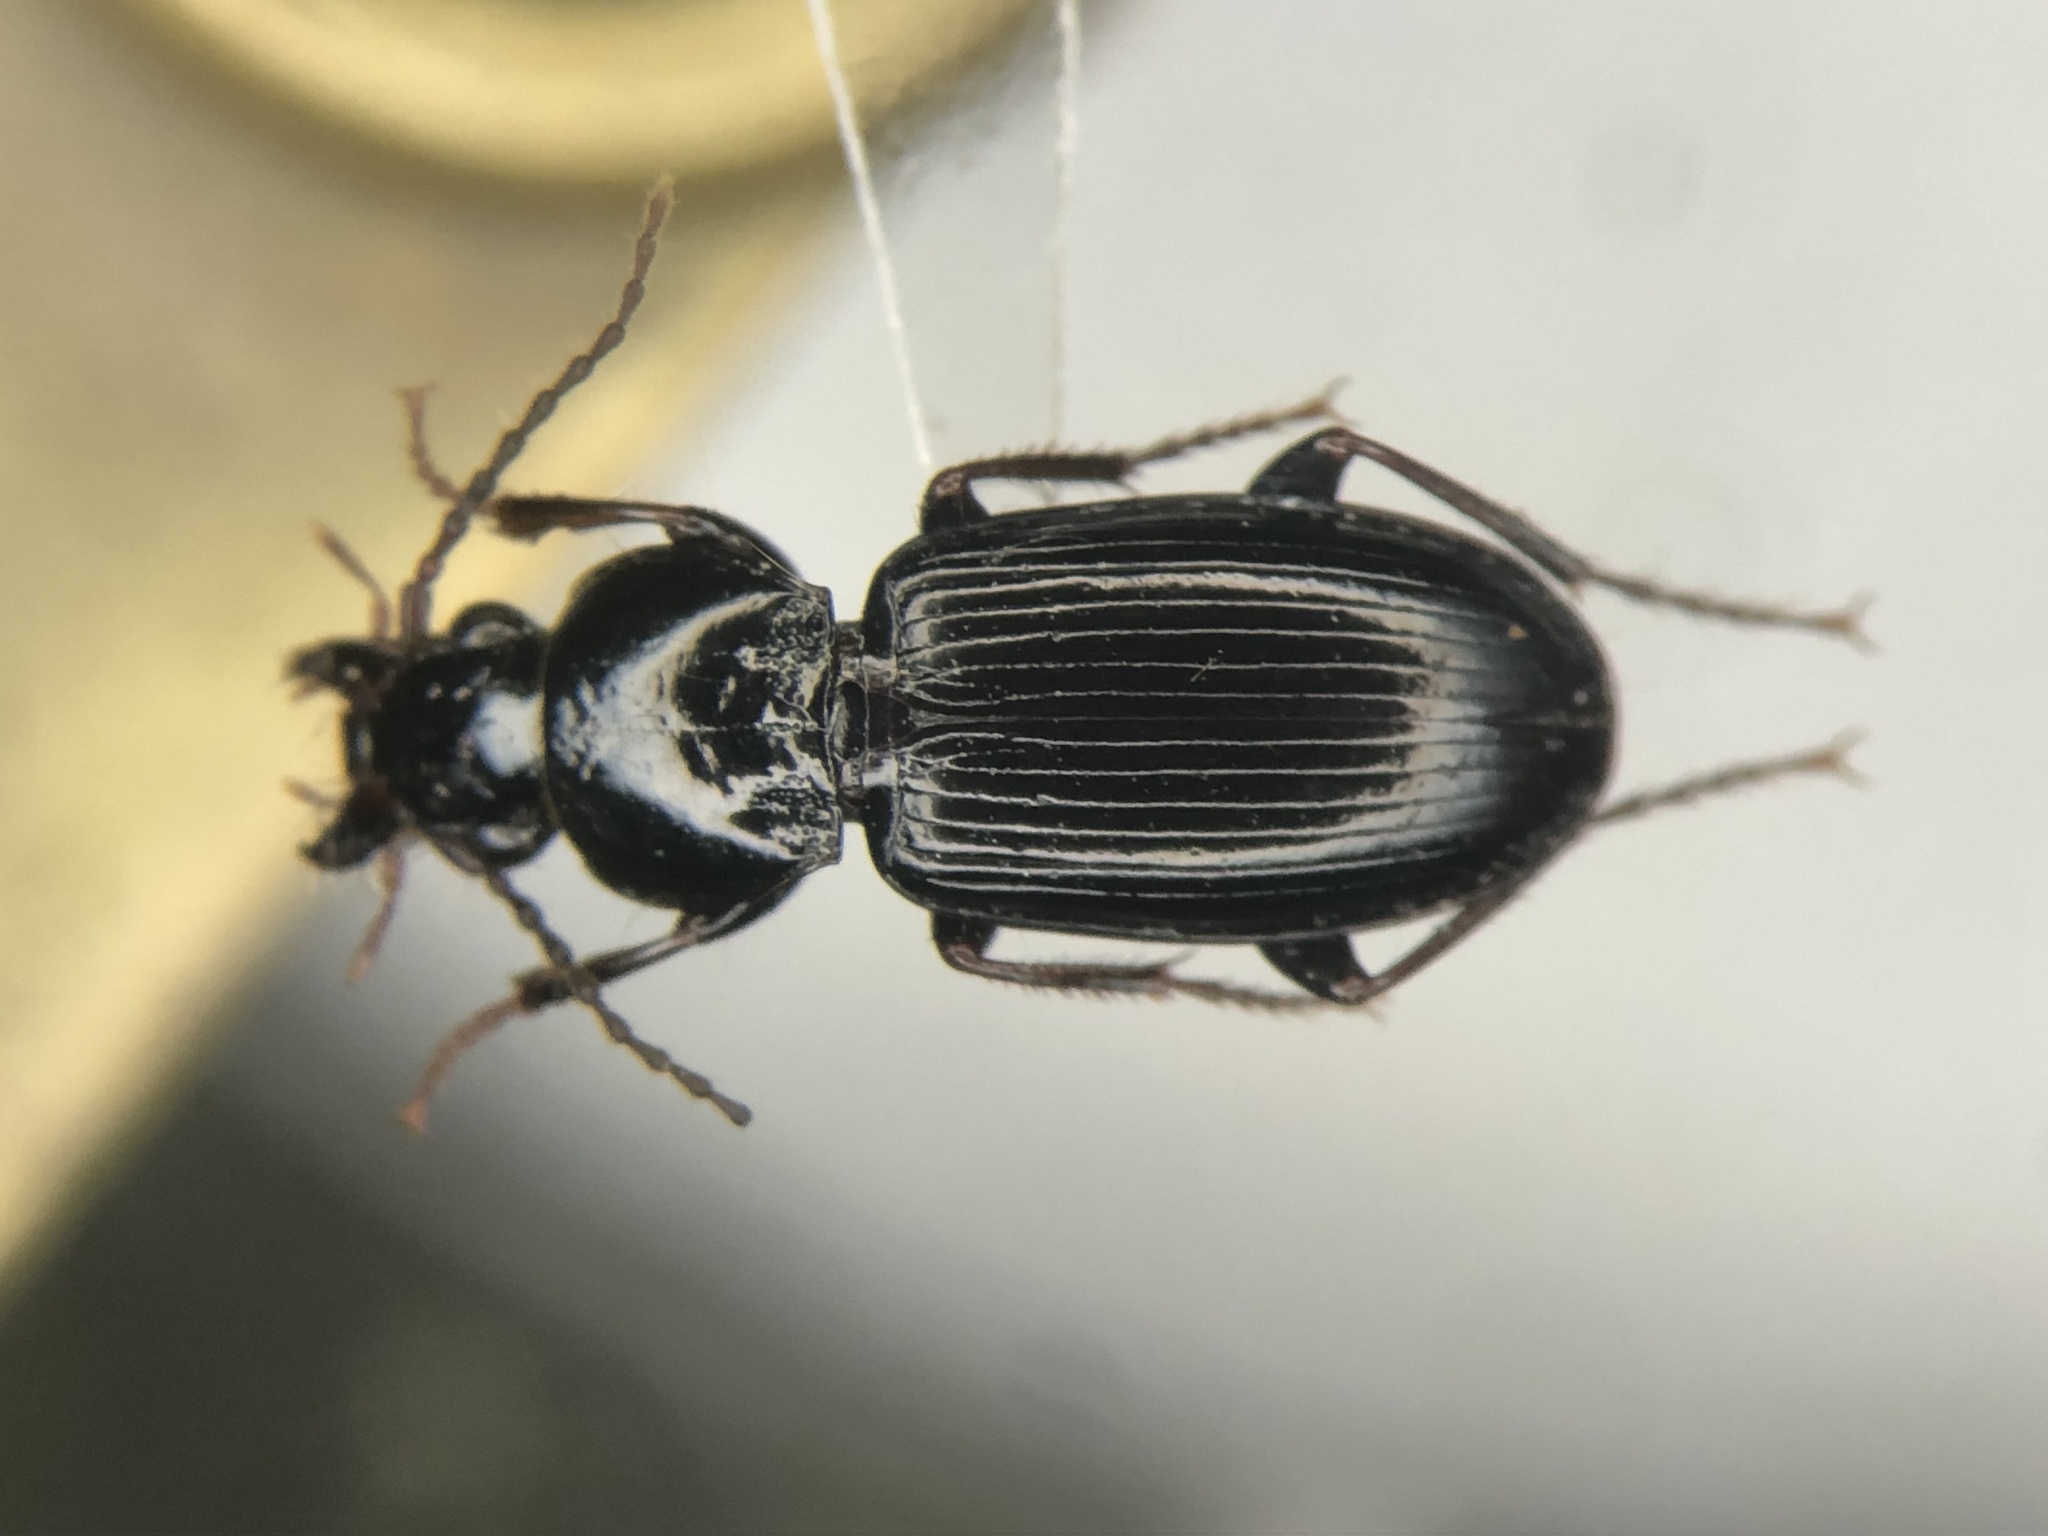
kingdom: Animalia
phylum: Arthropoda
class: Insecta
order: Coleoptera
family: Carabidae
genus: Pterostichus
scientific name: Pterostichus luctuosus
